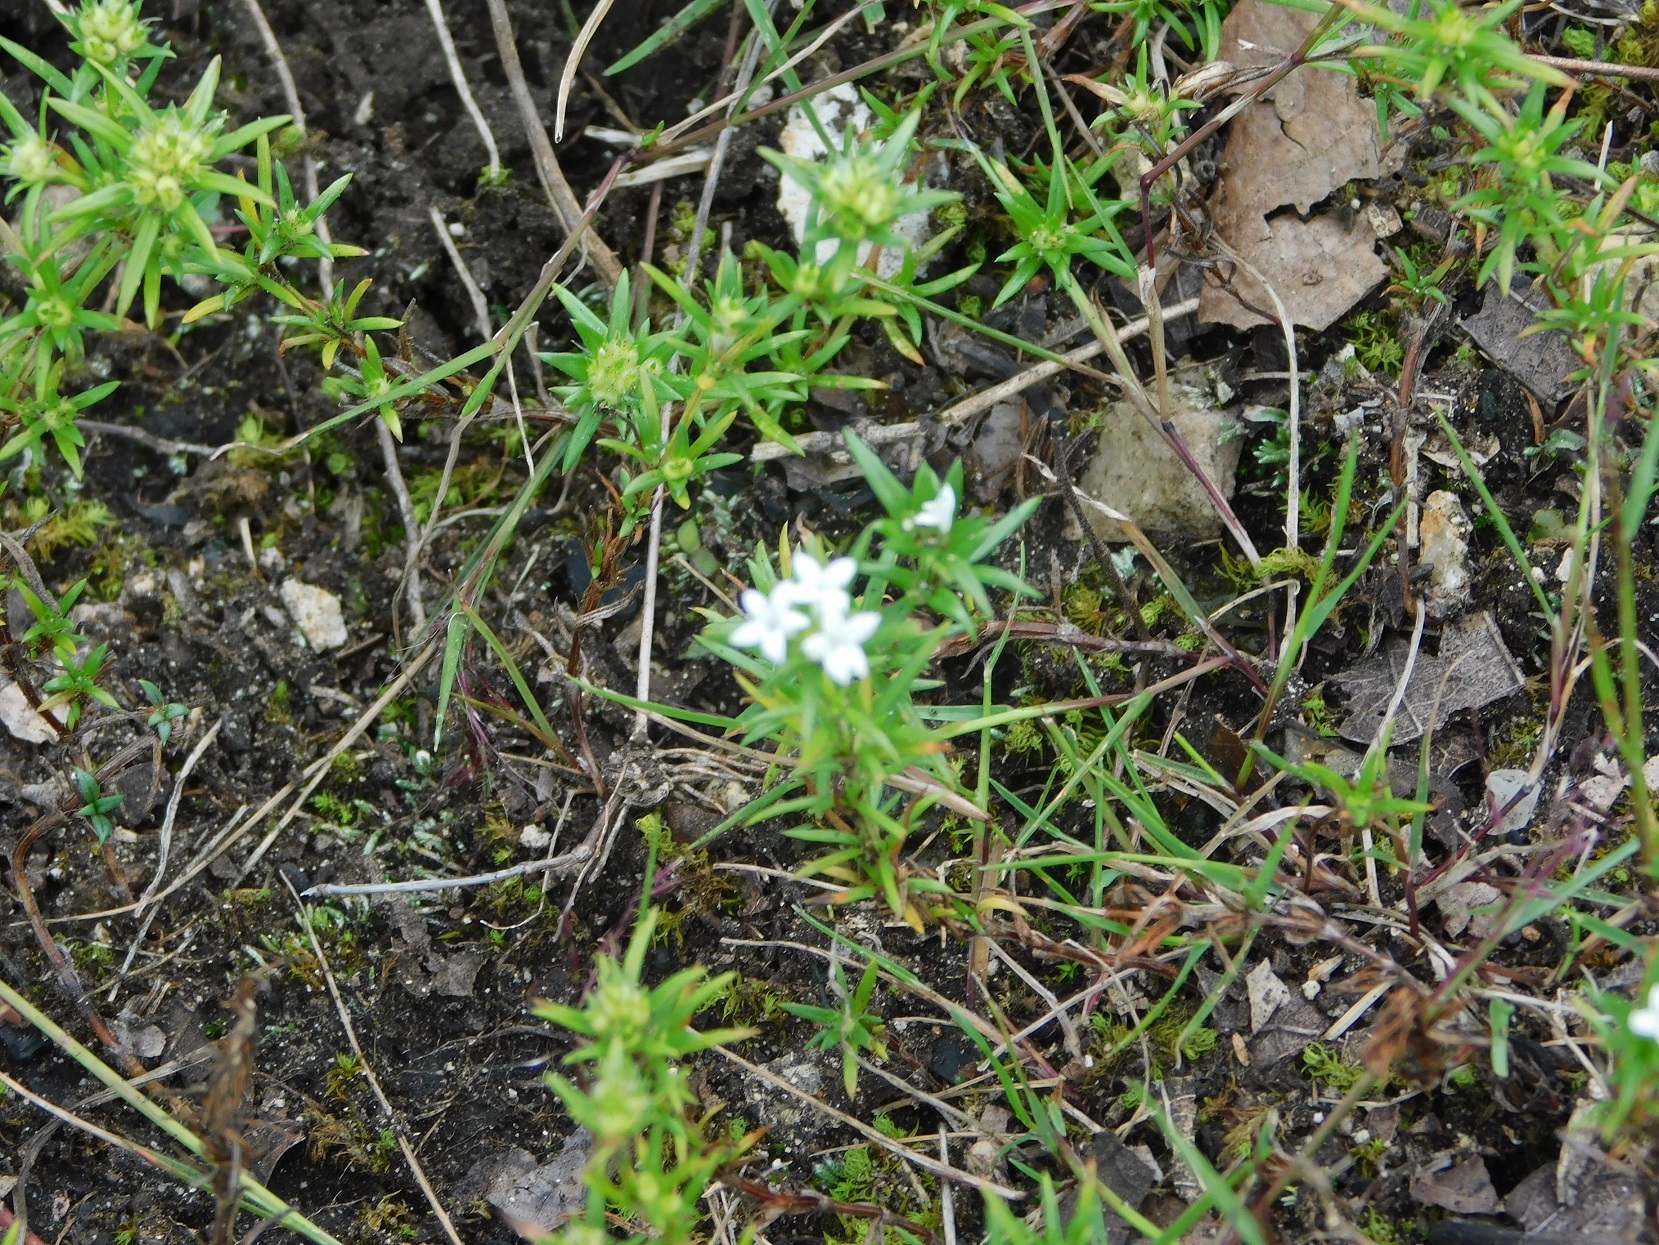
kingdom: Plantae
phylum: Tracheophyta
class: Magnoliopsida
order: Gentianales
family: Rubiaceae
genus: Crusea
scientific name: Crusea simplex
